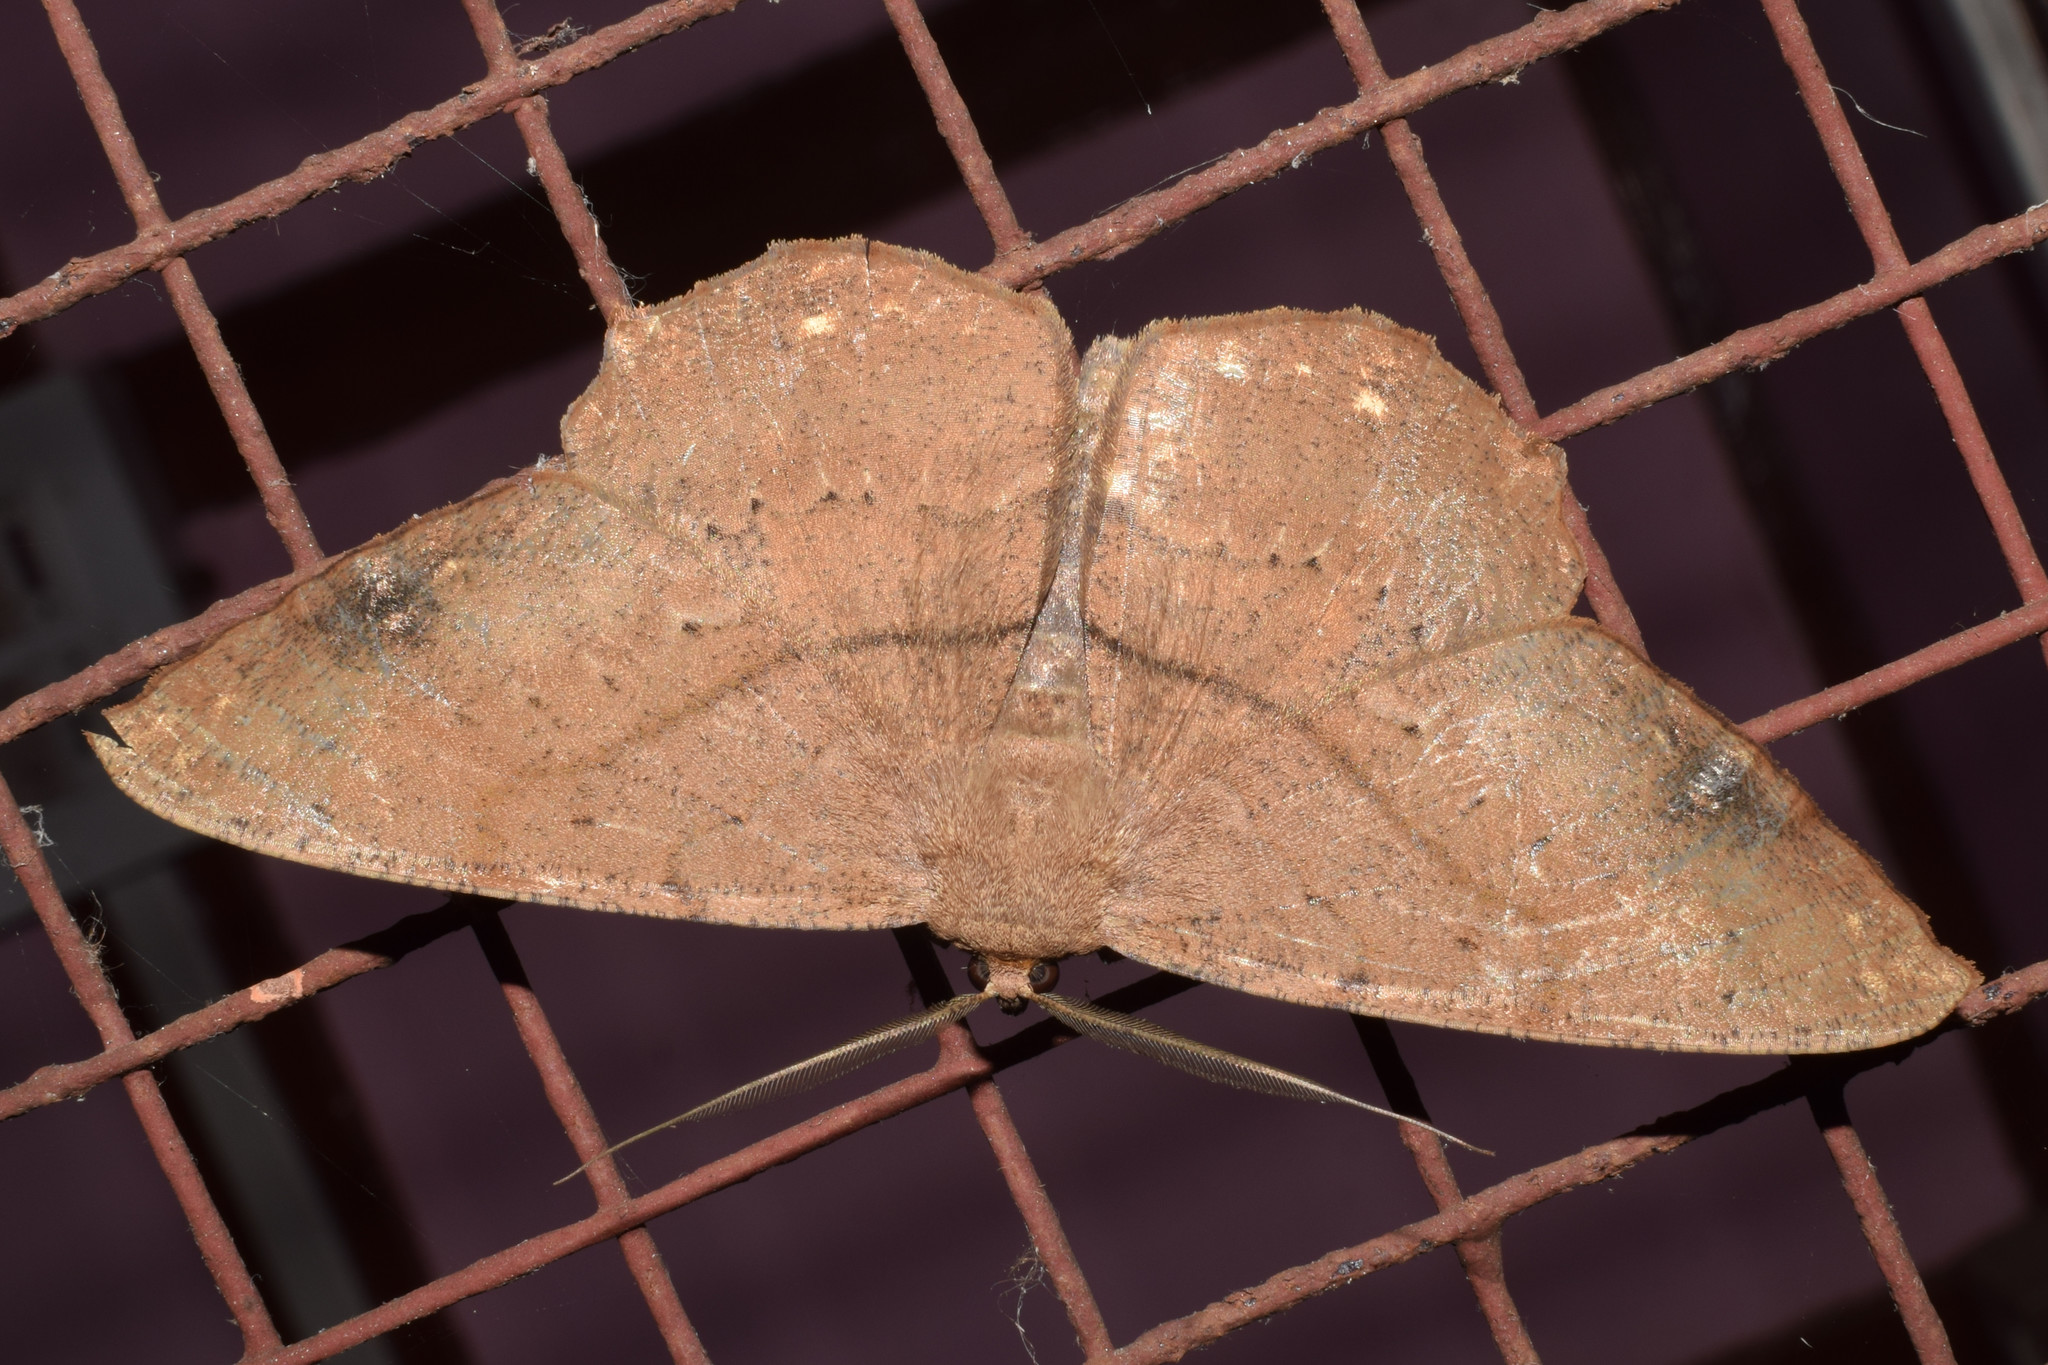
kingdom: Animalia
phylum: Arthropoda
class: Insecta
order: Lepidoptera
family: Geometridae
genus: Chorodna
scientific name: Chorodna ochreimacula
